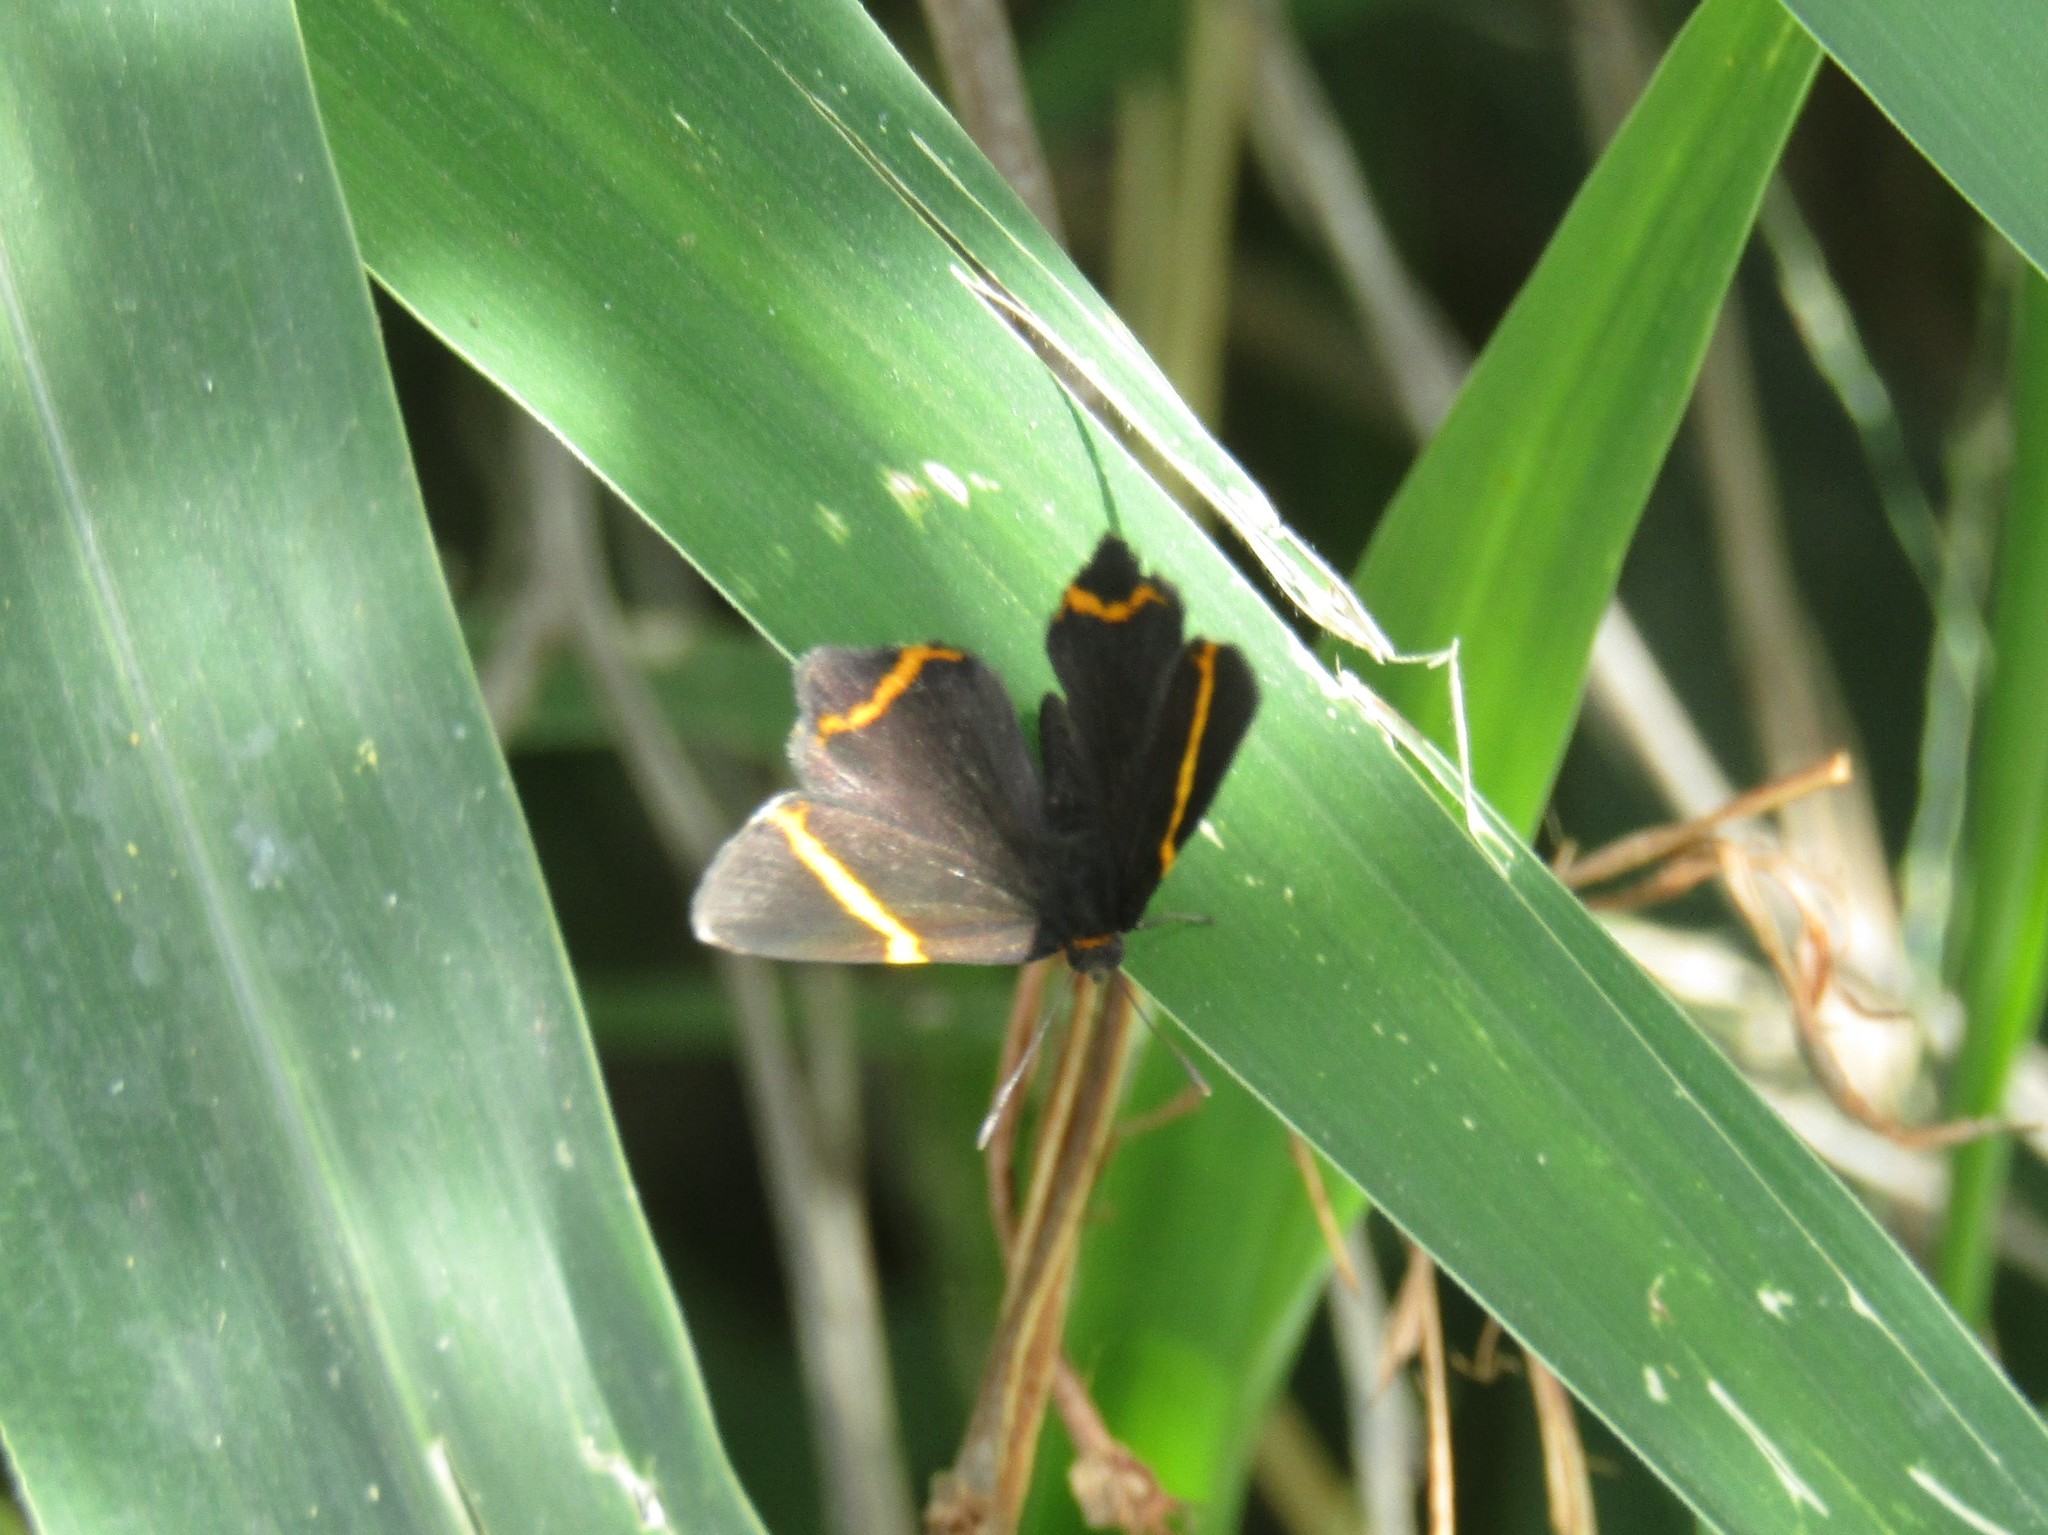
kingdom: Animalia
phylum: Arthropoda
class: Insecta
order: Lepidoptera
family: Riodinidae
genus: Riodina
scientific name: Riodina lysippoides
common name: Little dancer metalmark
